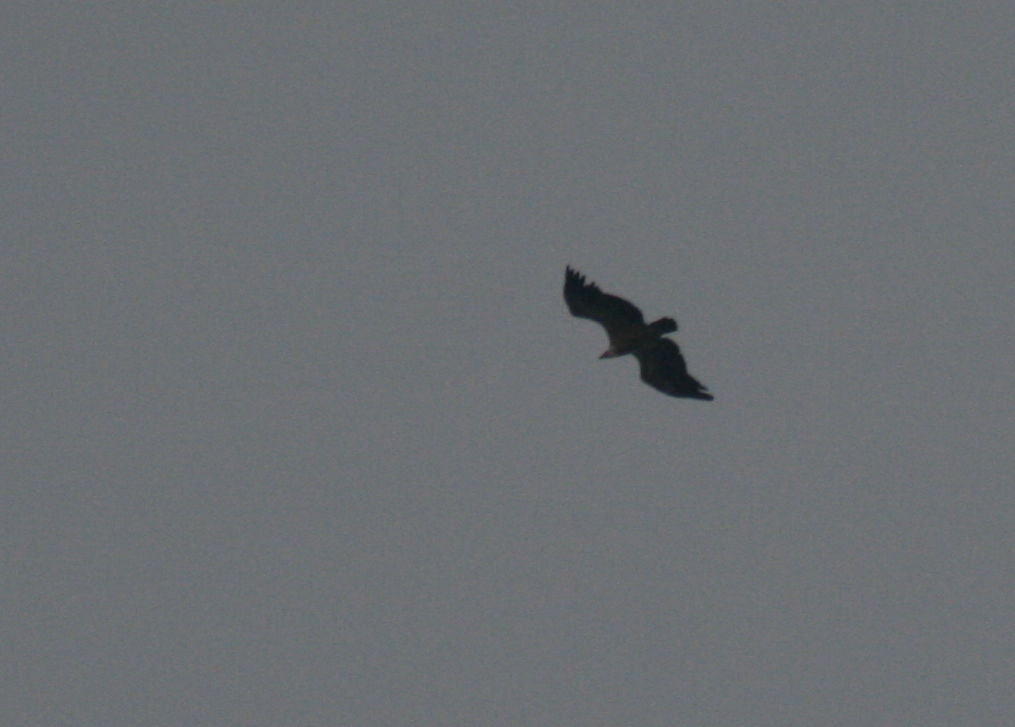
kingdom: Animalia
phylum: Chordata
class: Aves
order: Accipitriformes
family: Accipitridae
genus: Gyps
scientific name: Gyps fulvus
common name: Griffon vulture
